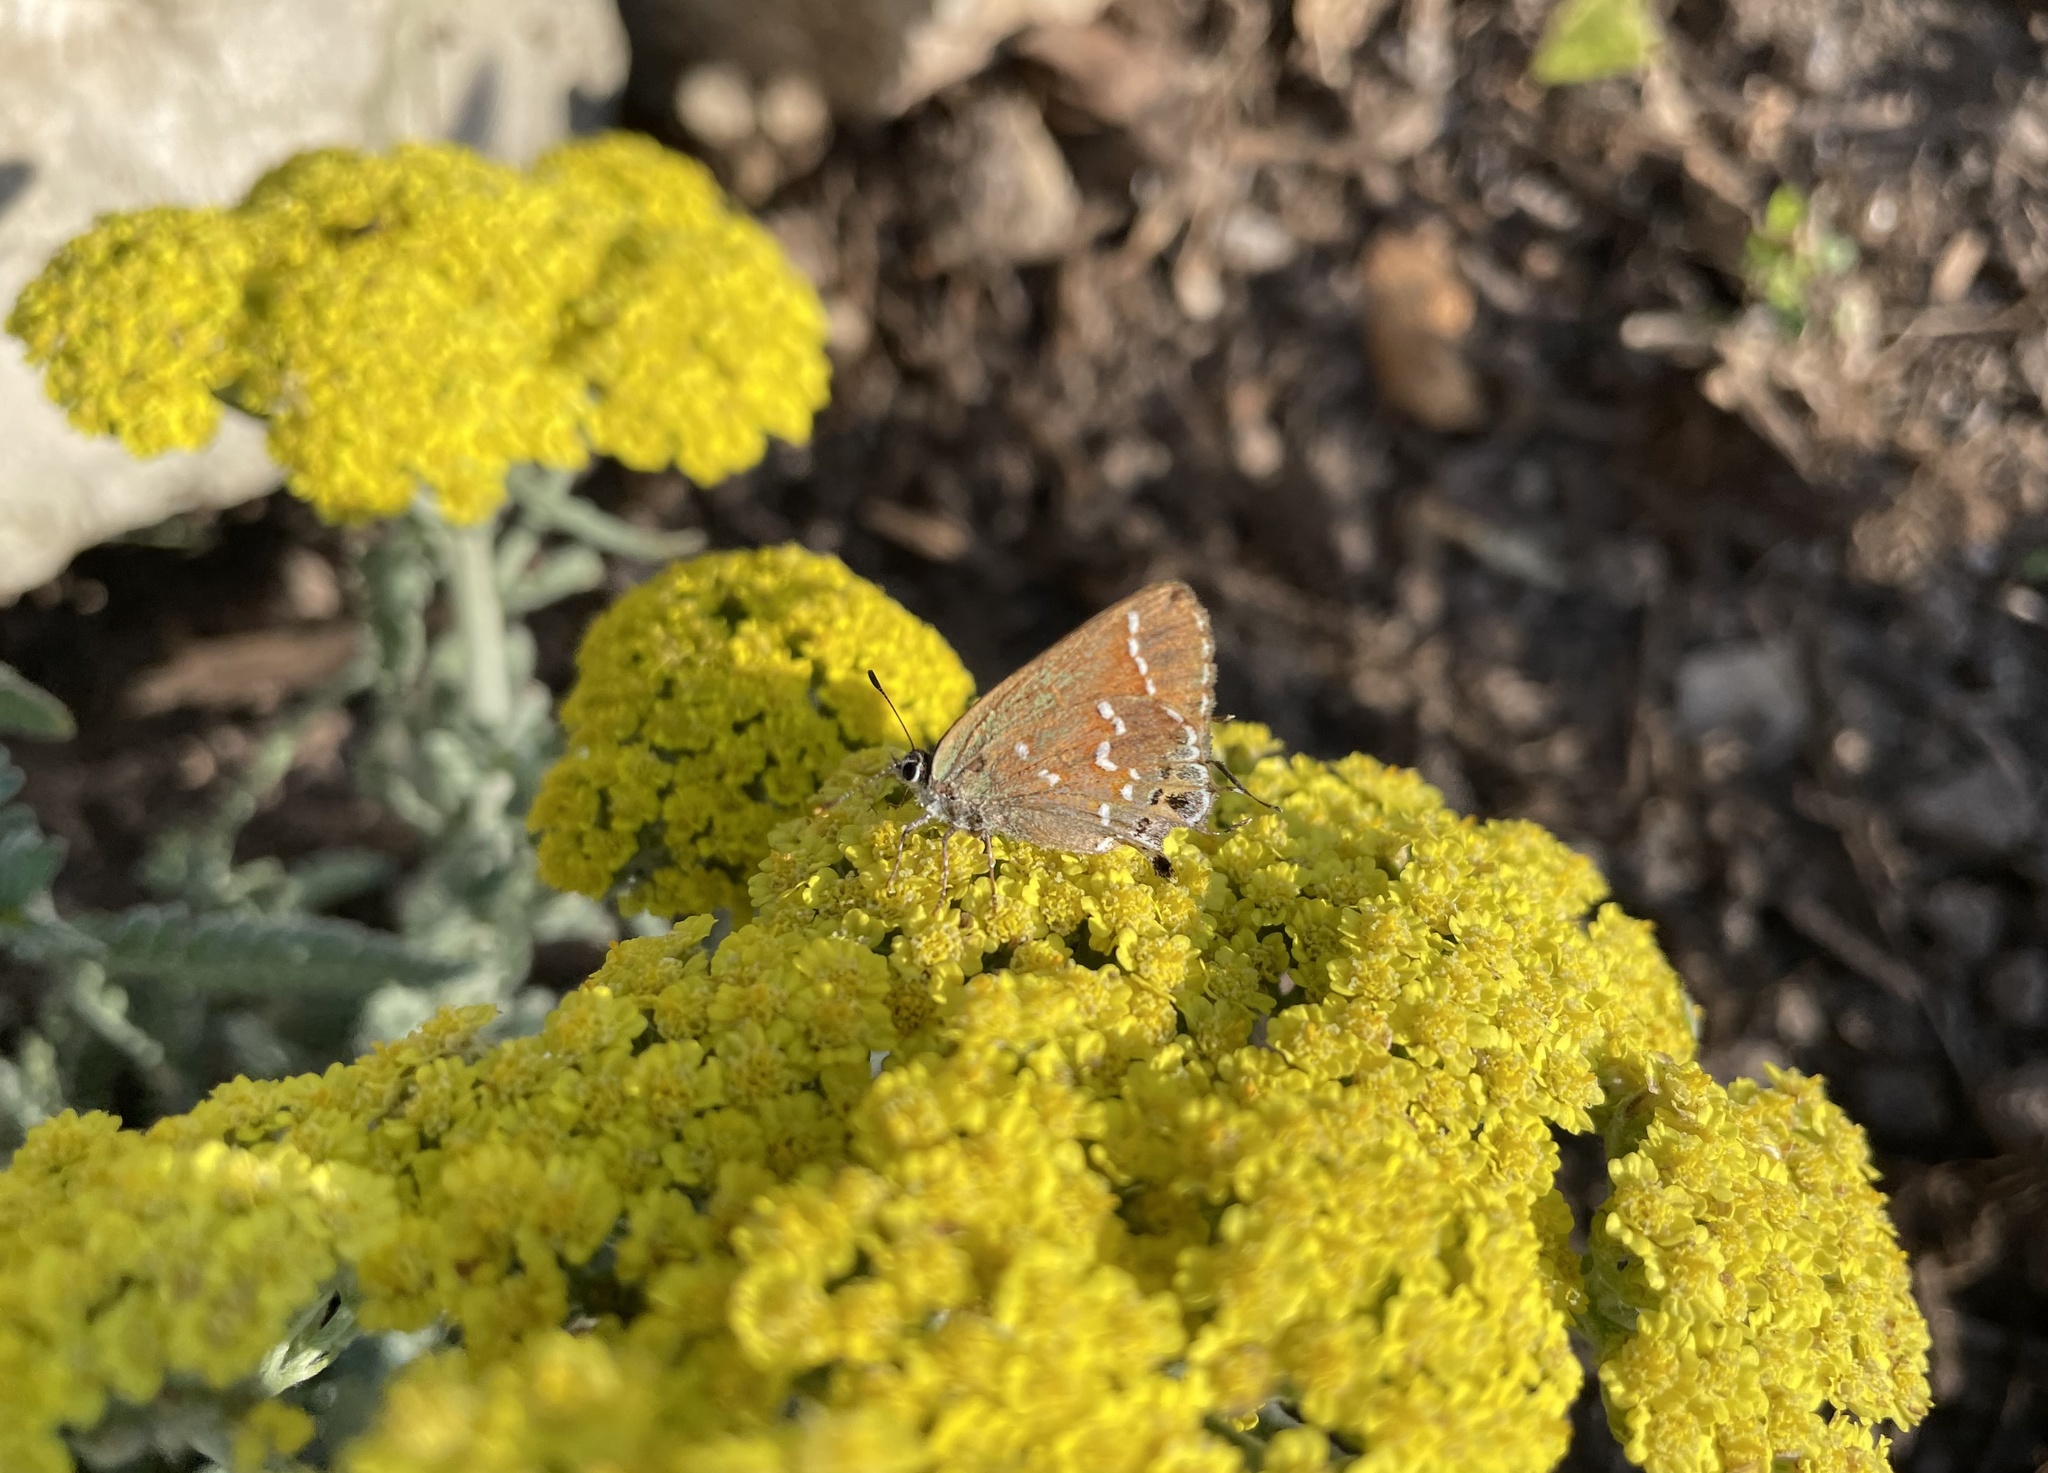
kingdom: Animalia
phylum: Arthropoda
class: Insecta
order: Lepidoptera
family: Lycaenidae
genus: Mitoura
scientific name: Mitoura gryneus
